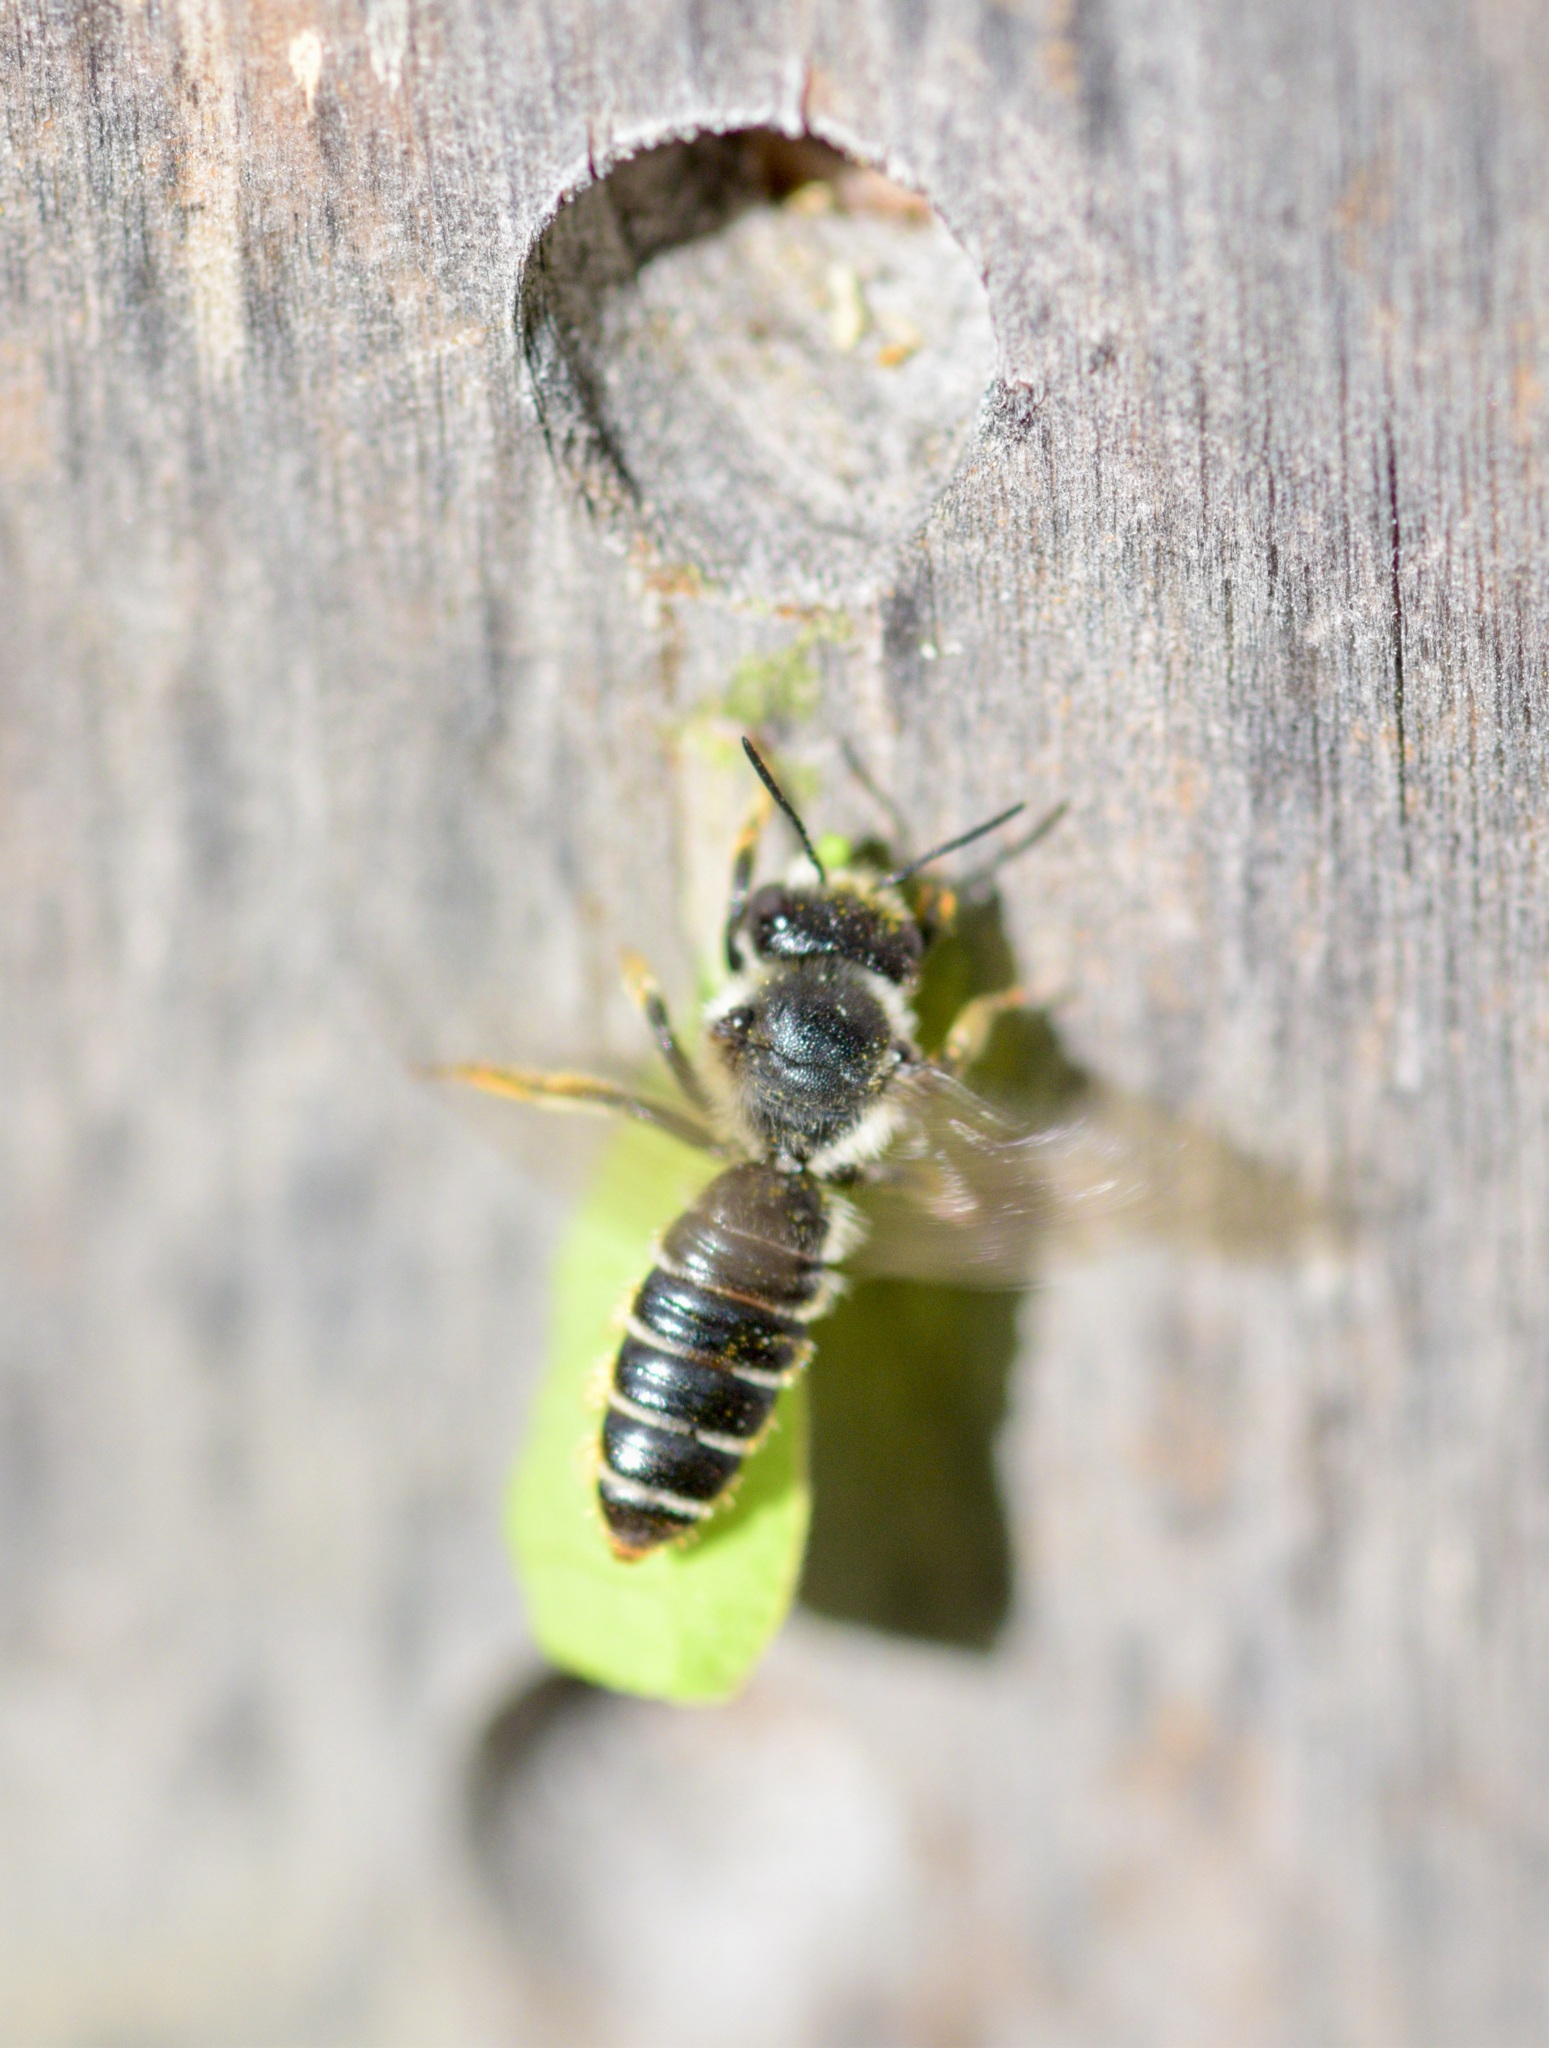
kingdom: Animalia
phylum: Arthropoda
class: Insecta
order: Hymenoptera
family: Megachilidae
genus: Megachile
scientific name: Megachile relativa
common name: Golden-tailed leafcutter
